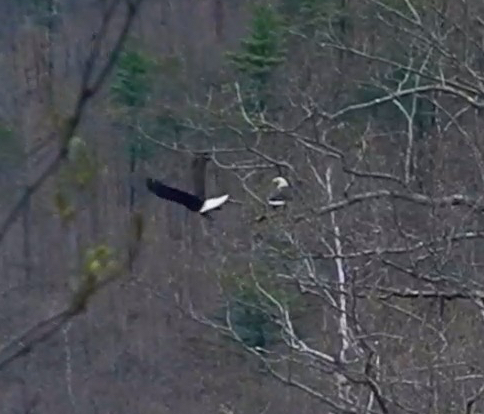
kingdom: Animalia
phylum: Chordata
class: Aves
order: Accipitriformes
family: Accipitridae
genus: Haliaeetus
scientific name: Haliaeetus leucocephalus
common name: Bald eagle
